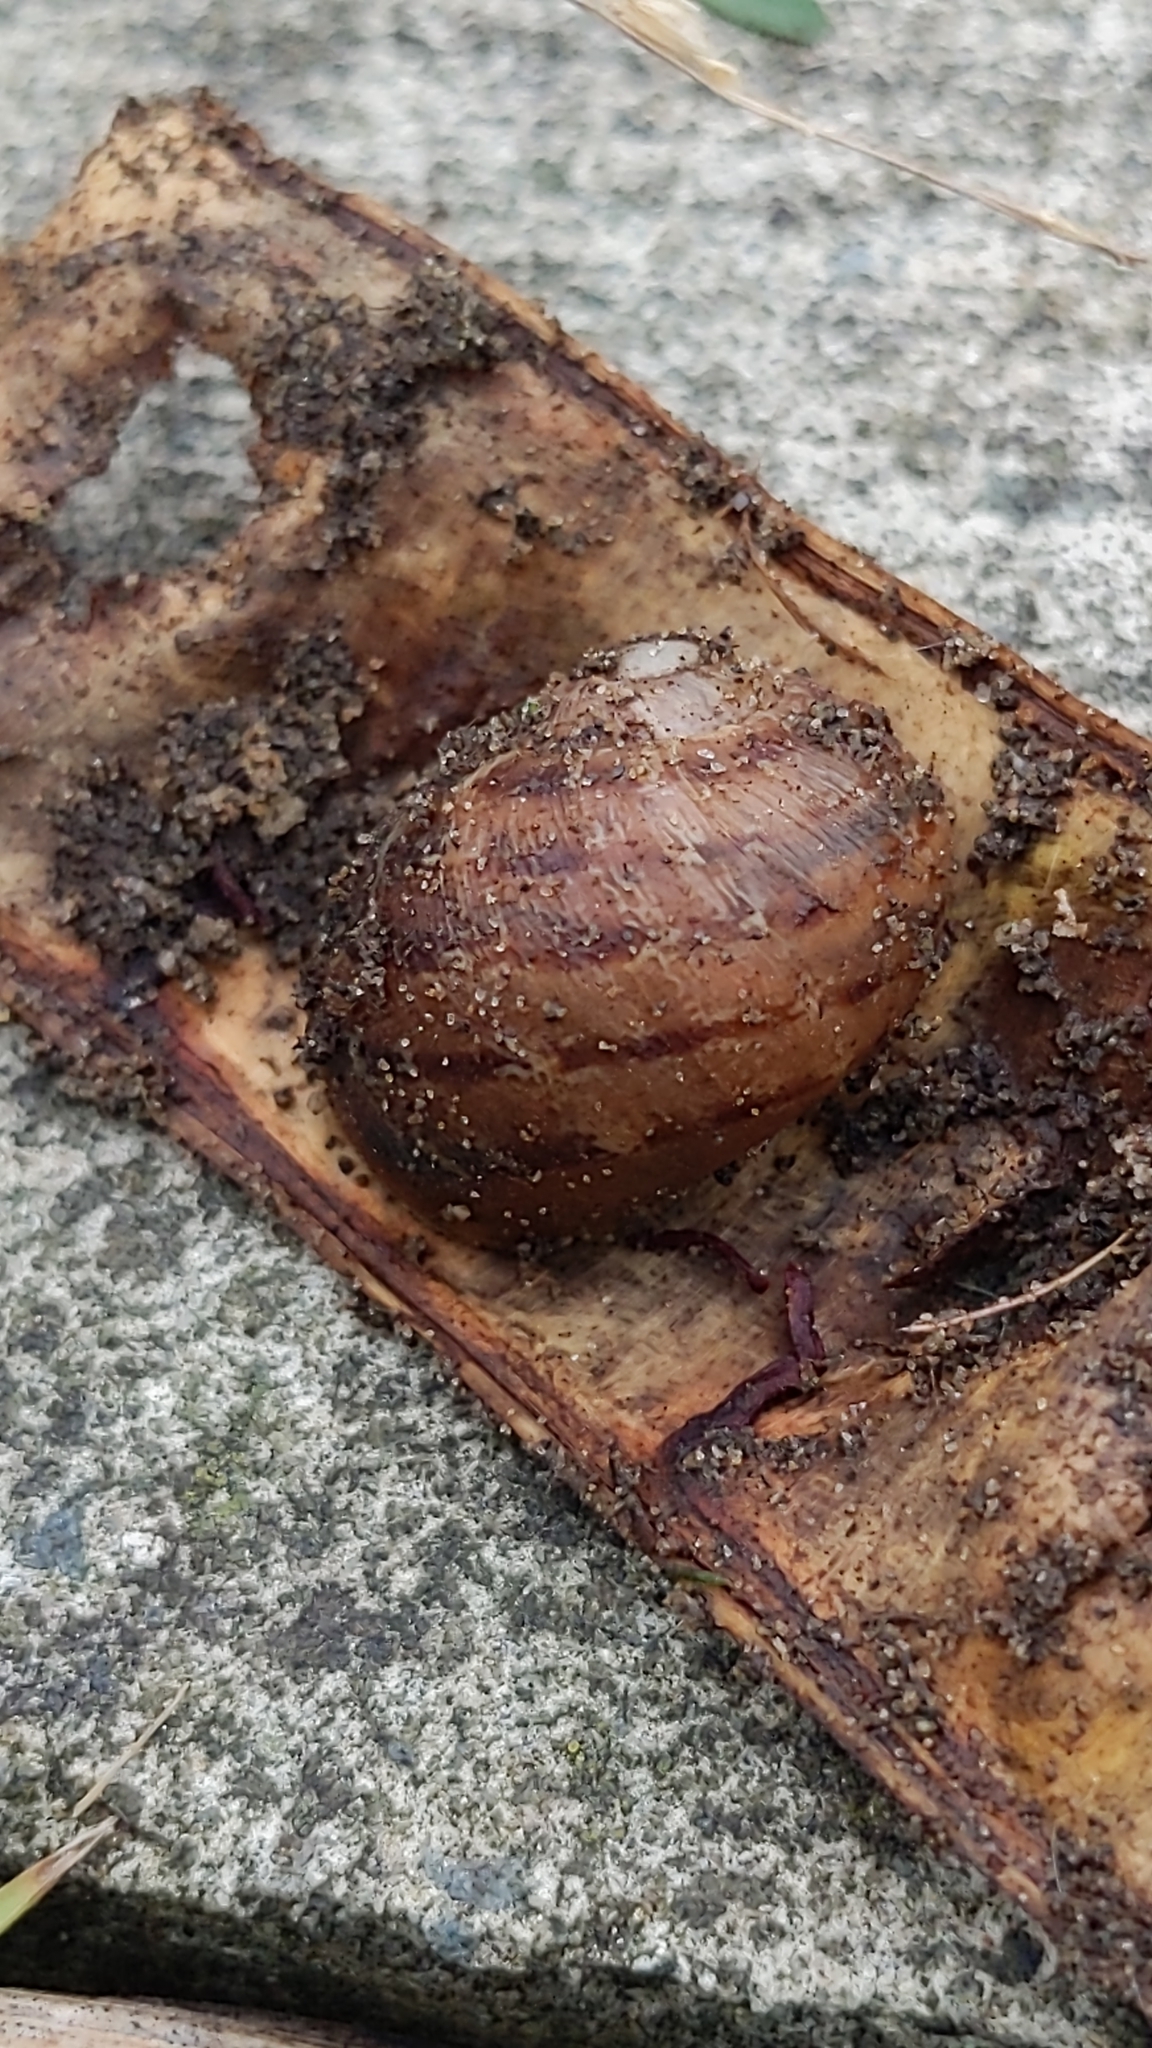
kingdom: Animalia
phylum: Mollusca
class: Gastropoda
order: Stylommatophora
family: Helicidae
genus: Cornu
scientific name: Cornu aspersum
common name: Brown garden snail
